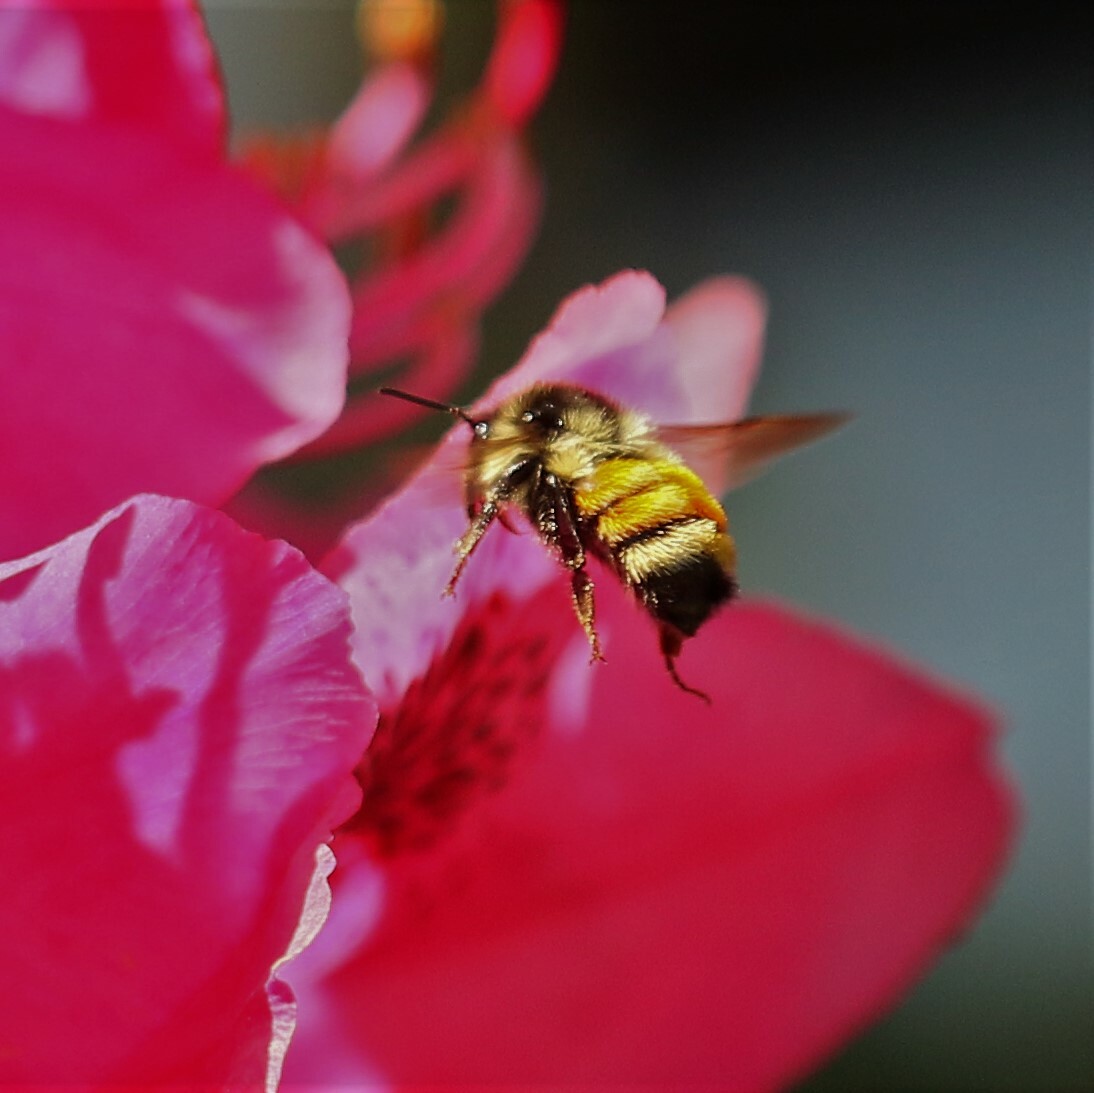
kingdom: Animalia
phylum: Arthropoda
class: Insecta
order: Hymenoptera
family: Apidae
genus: Bombus
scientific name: Bombus ternarius
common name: Tri-colored bumble bee
